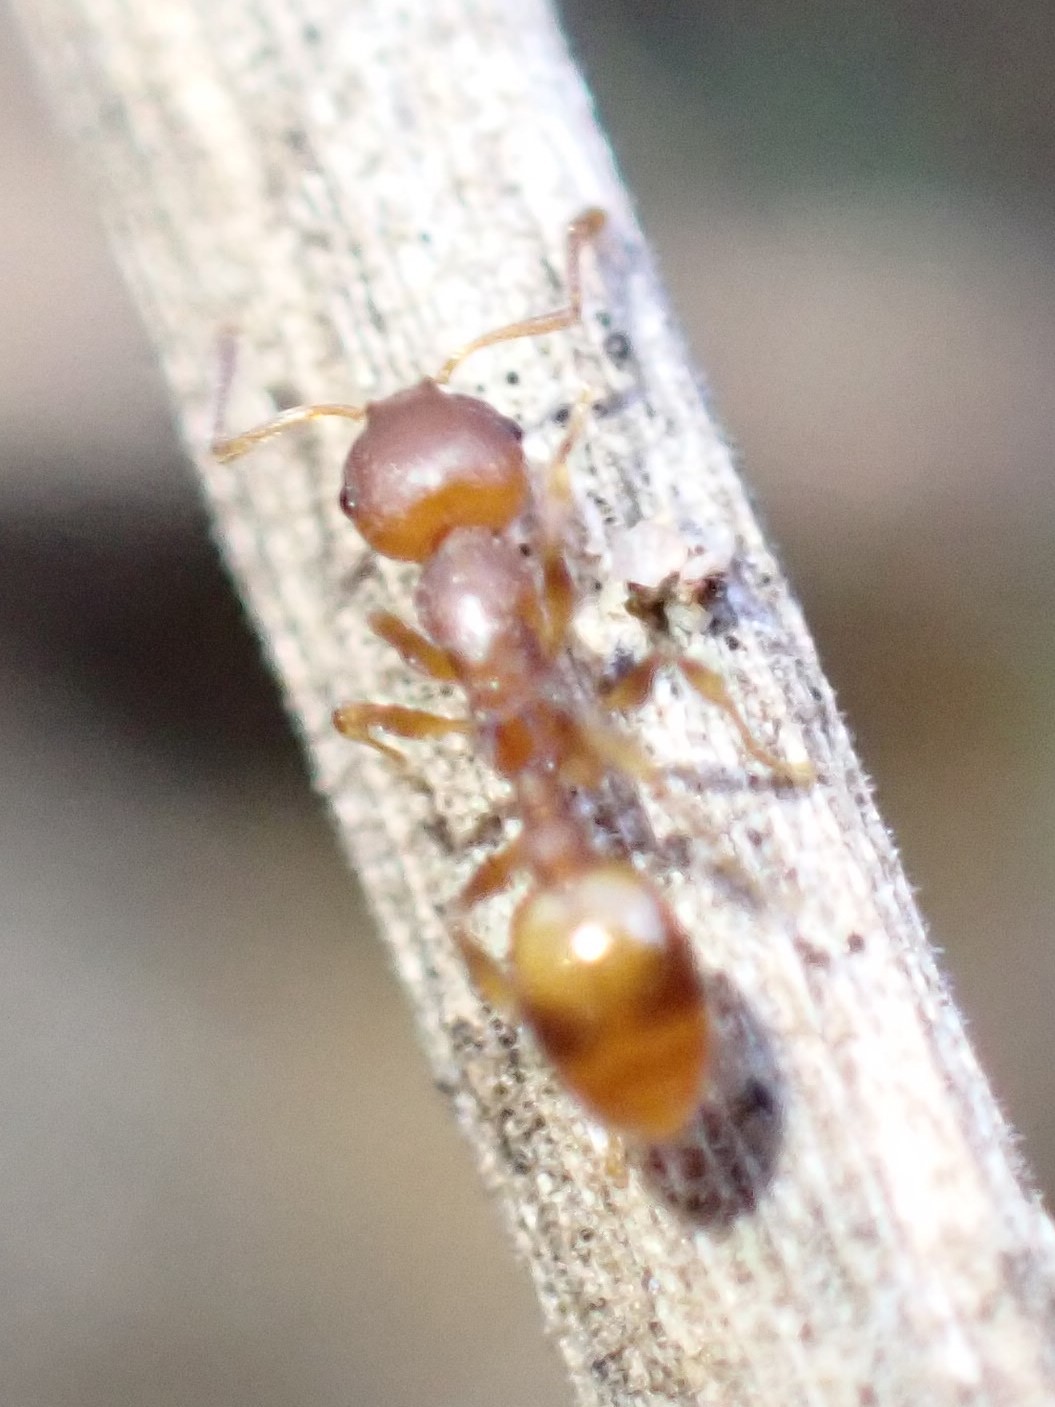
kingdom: Animalia
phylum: Arthropoda
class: Insecta
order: Hymenoptera
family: Formicidae
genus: Temnothorax
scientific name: Temnothorax curvispinosus
